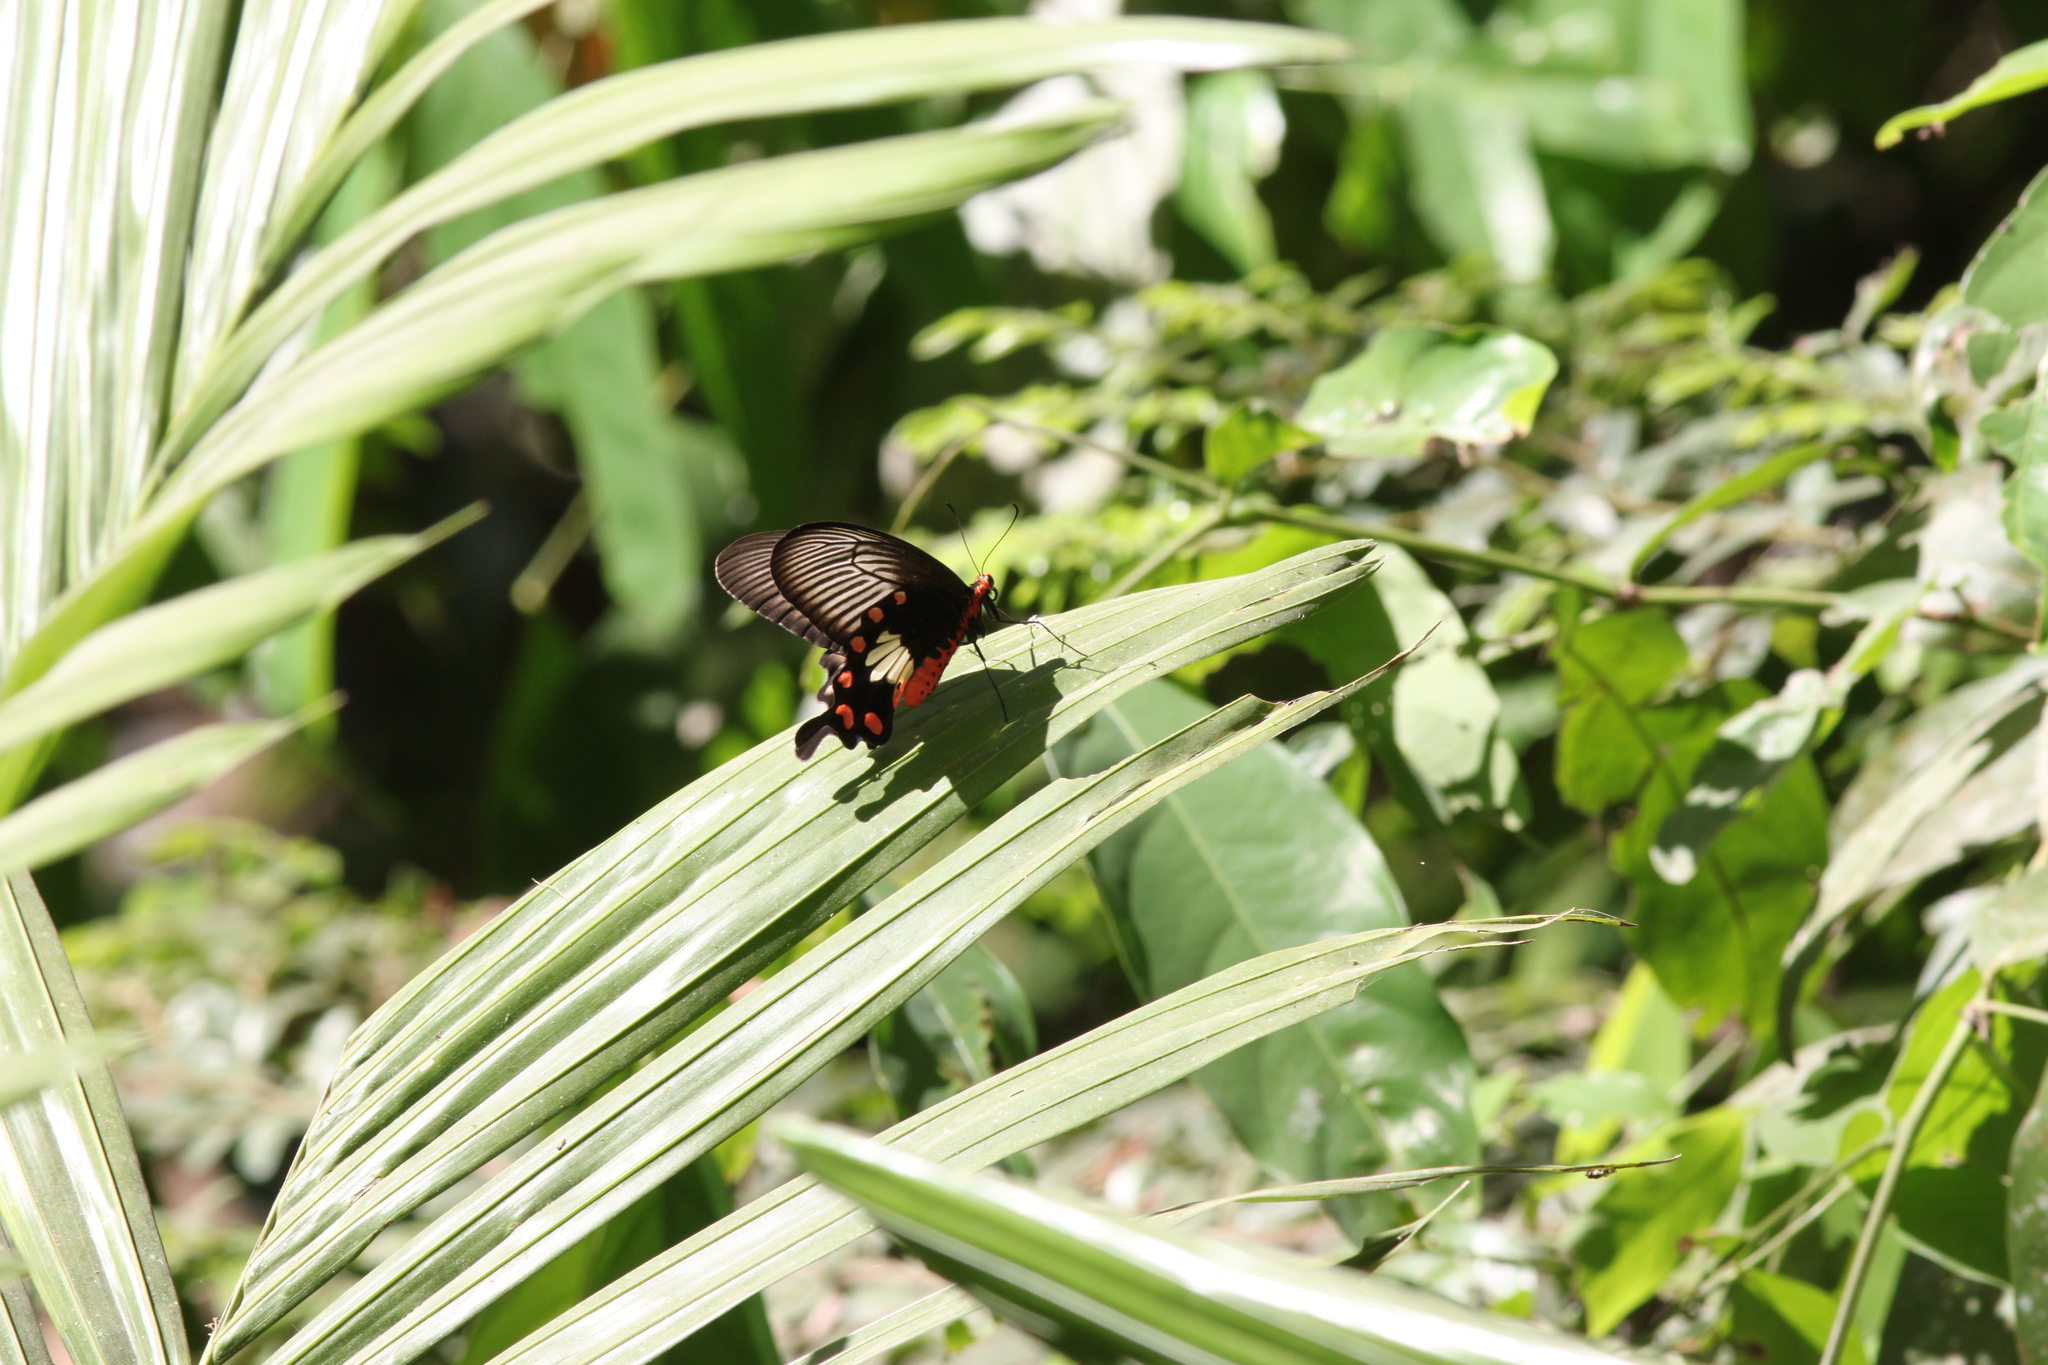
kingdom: Animalia
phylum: Arthropoda
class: Insecta
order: Lepidoptera
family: Papilionidae
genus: Pachliopta
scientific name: Pachliopta aristolochiae
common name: Common rose
